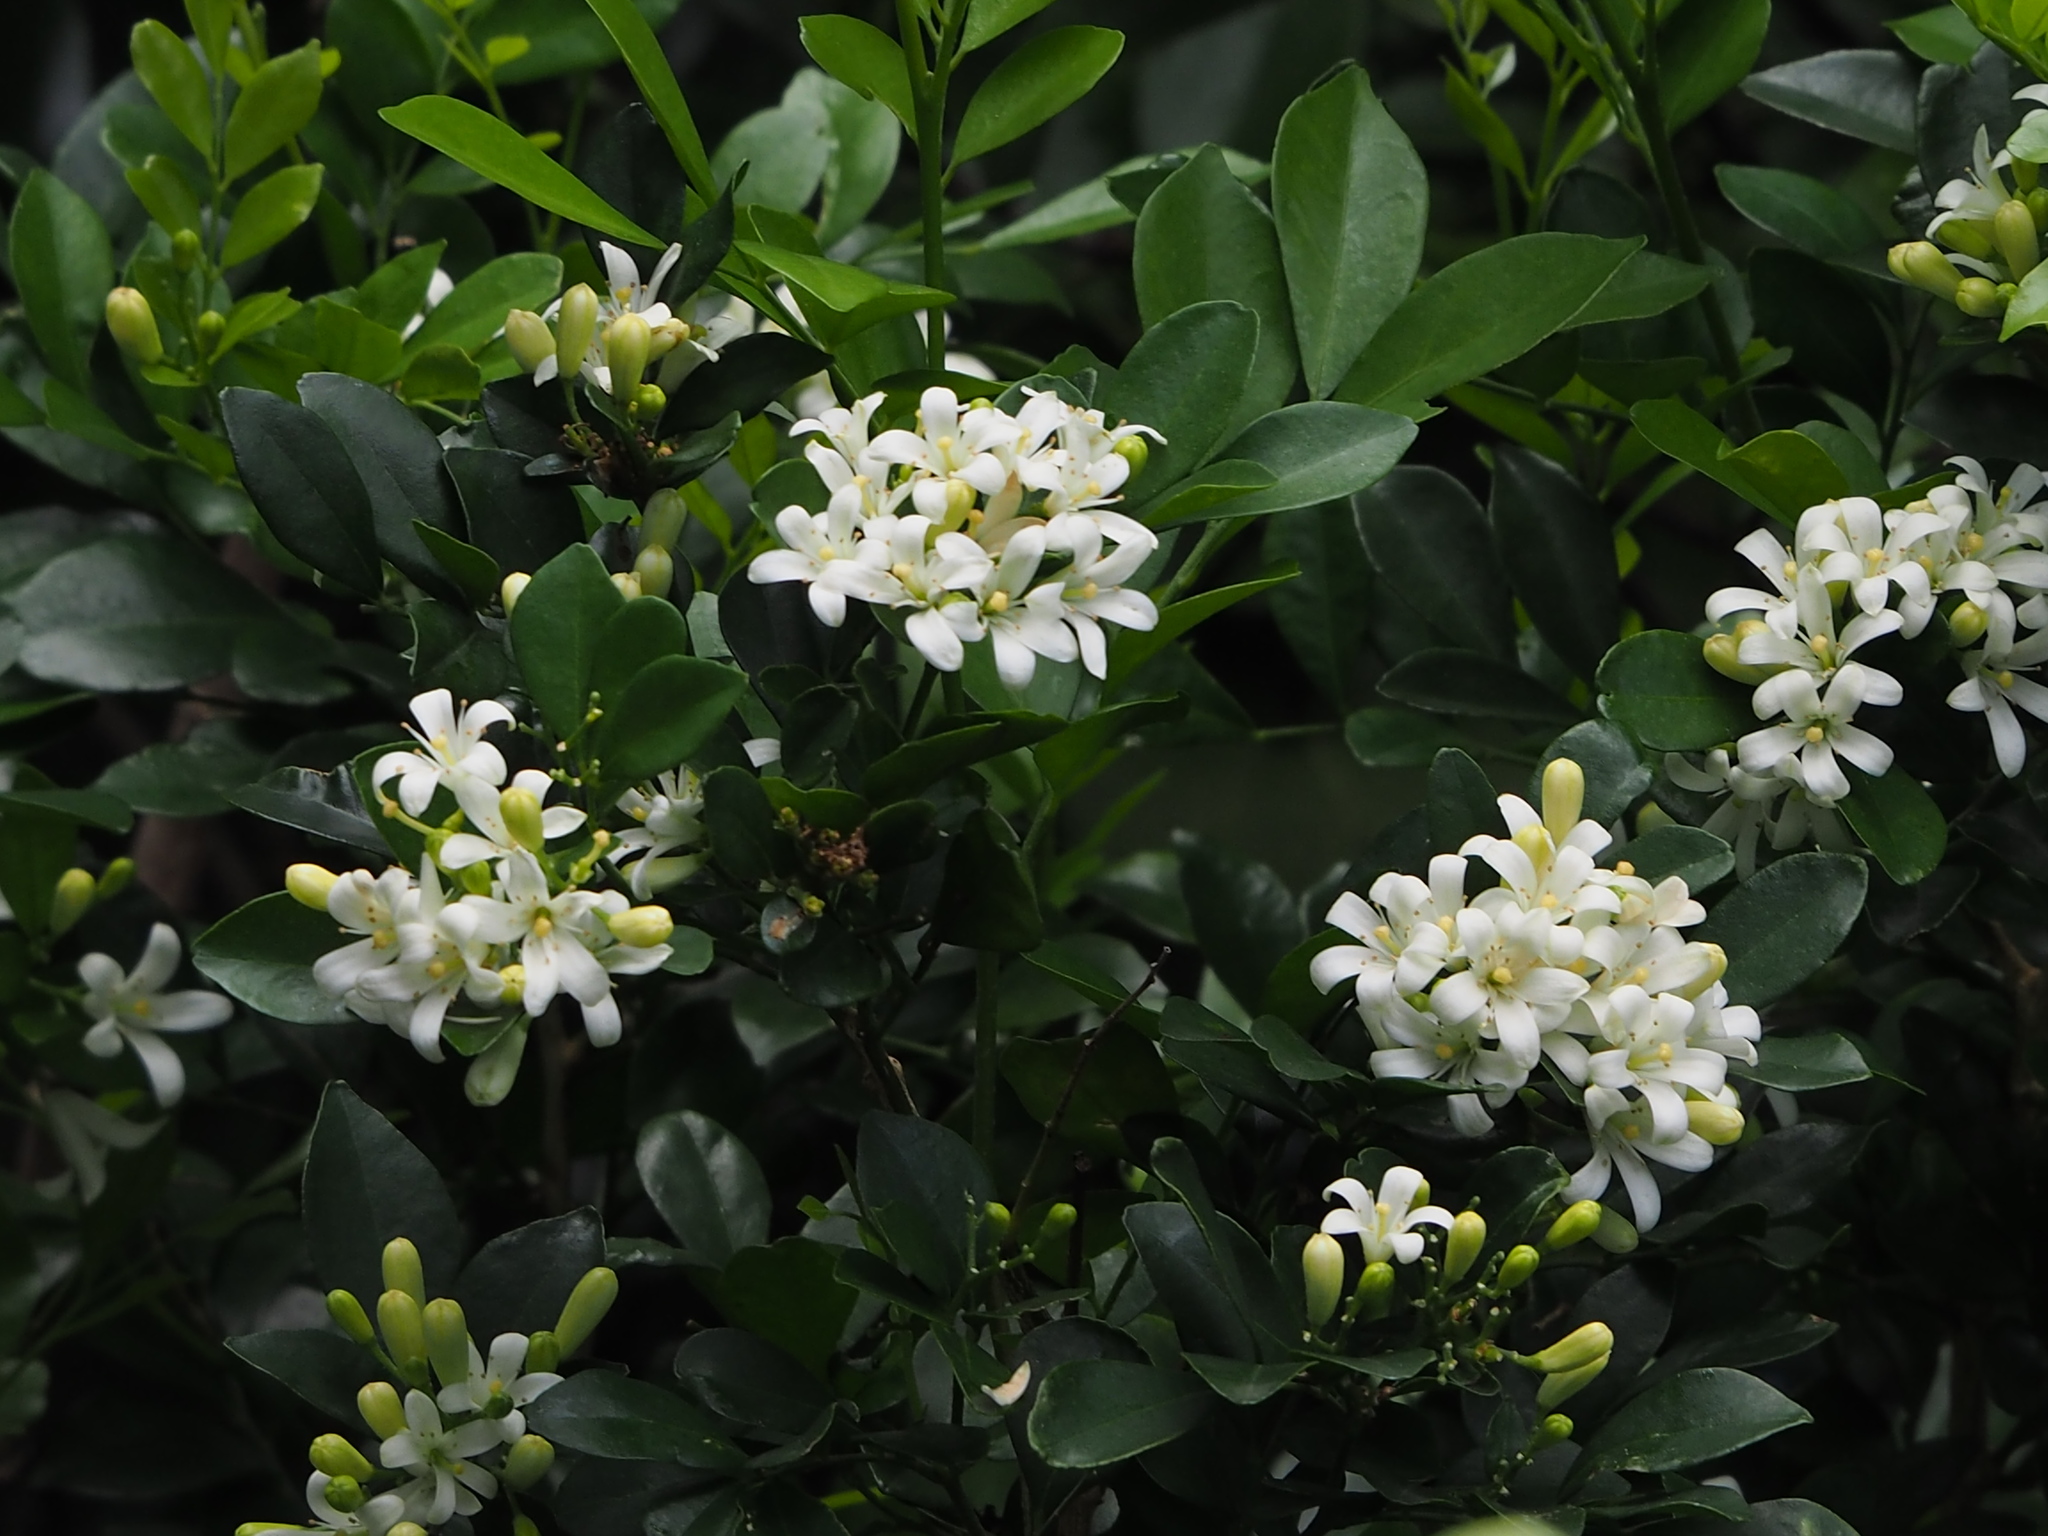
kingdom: Plantae
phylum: Tracheophyta
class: Magnoliopsida
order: Sapindales
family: Rutaceae
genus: Murraya
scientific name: Murraya paniculata
